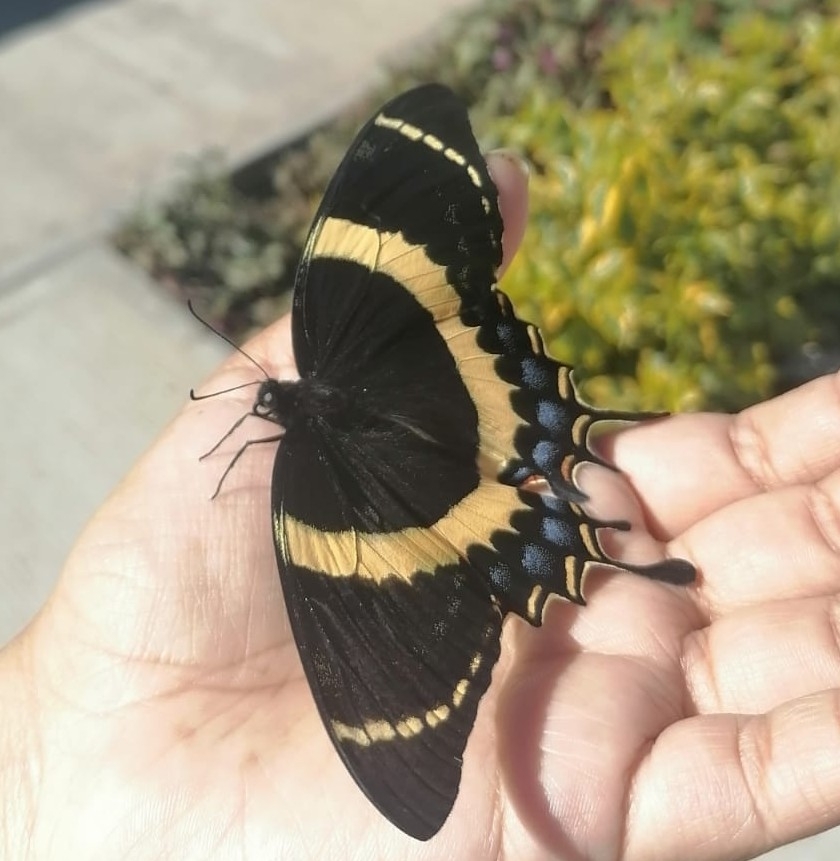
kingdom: Animalia
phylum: Arthropoda
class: Insecta
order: Lepidoptera
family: Papilionidae
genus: Papilio
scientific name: Papilio garamas
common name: Magnificent swallowtail
